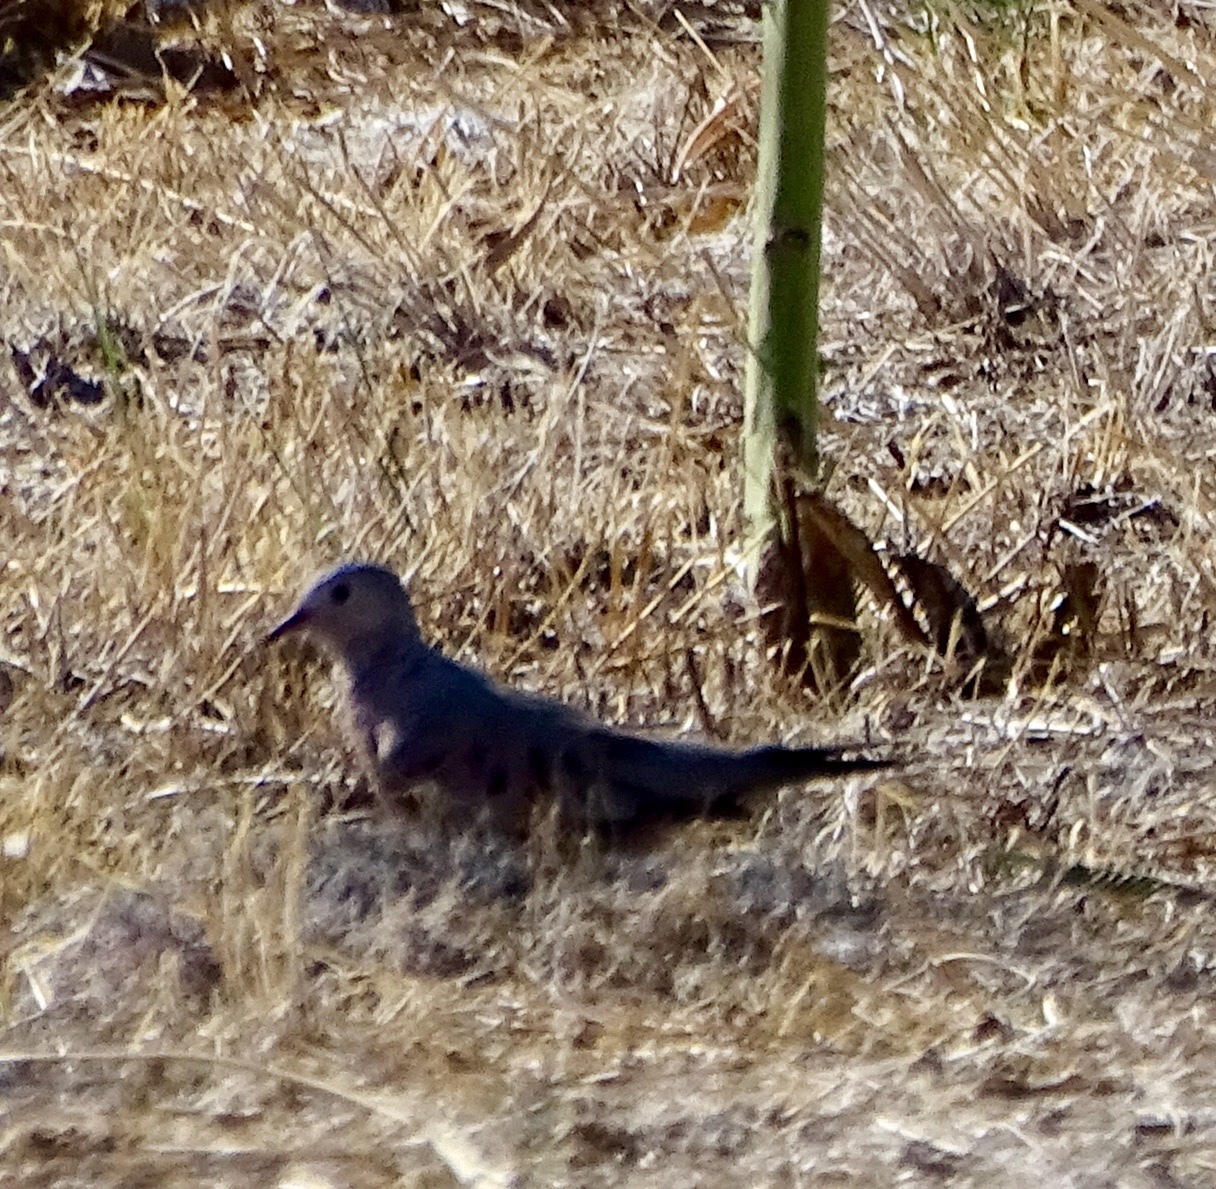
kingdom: Animalia
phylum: Chordata
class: Aves
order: Columbiformes
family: Columbidae
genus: Columbina
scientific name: Columbina passerina
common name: Common ground-dove
